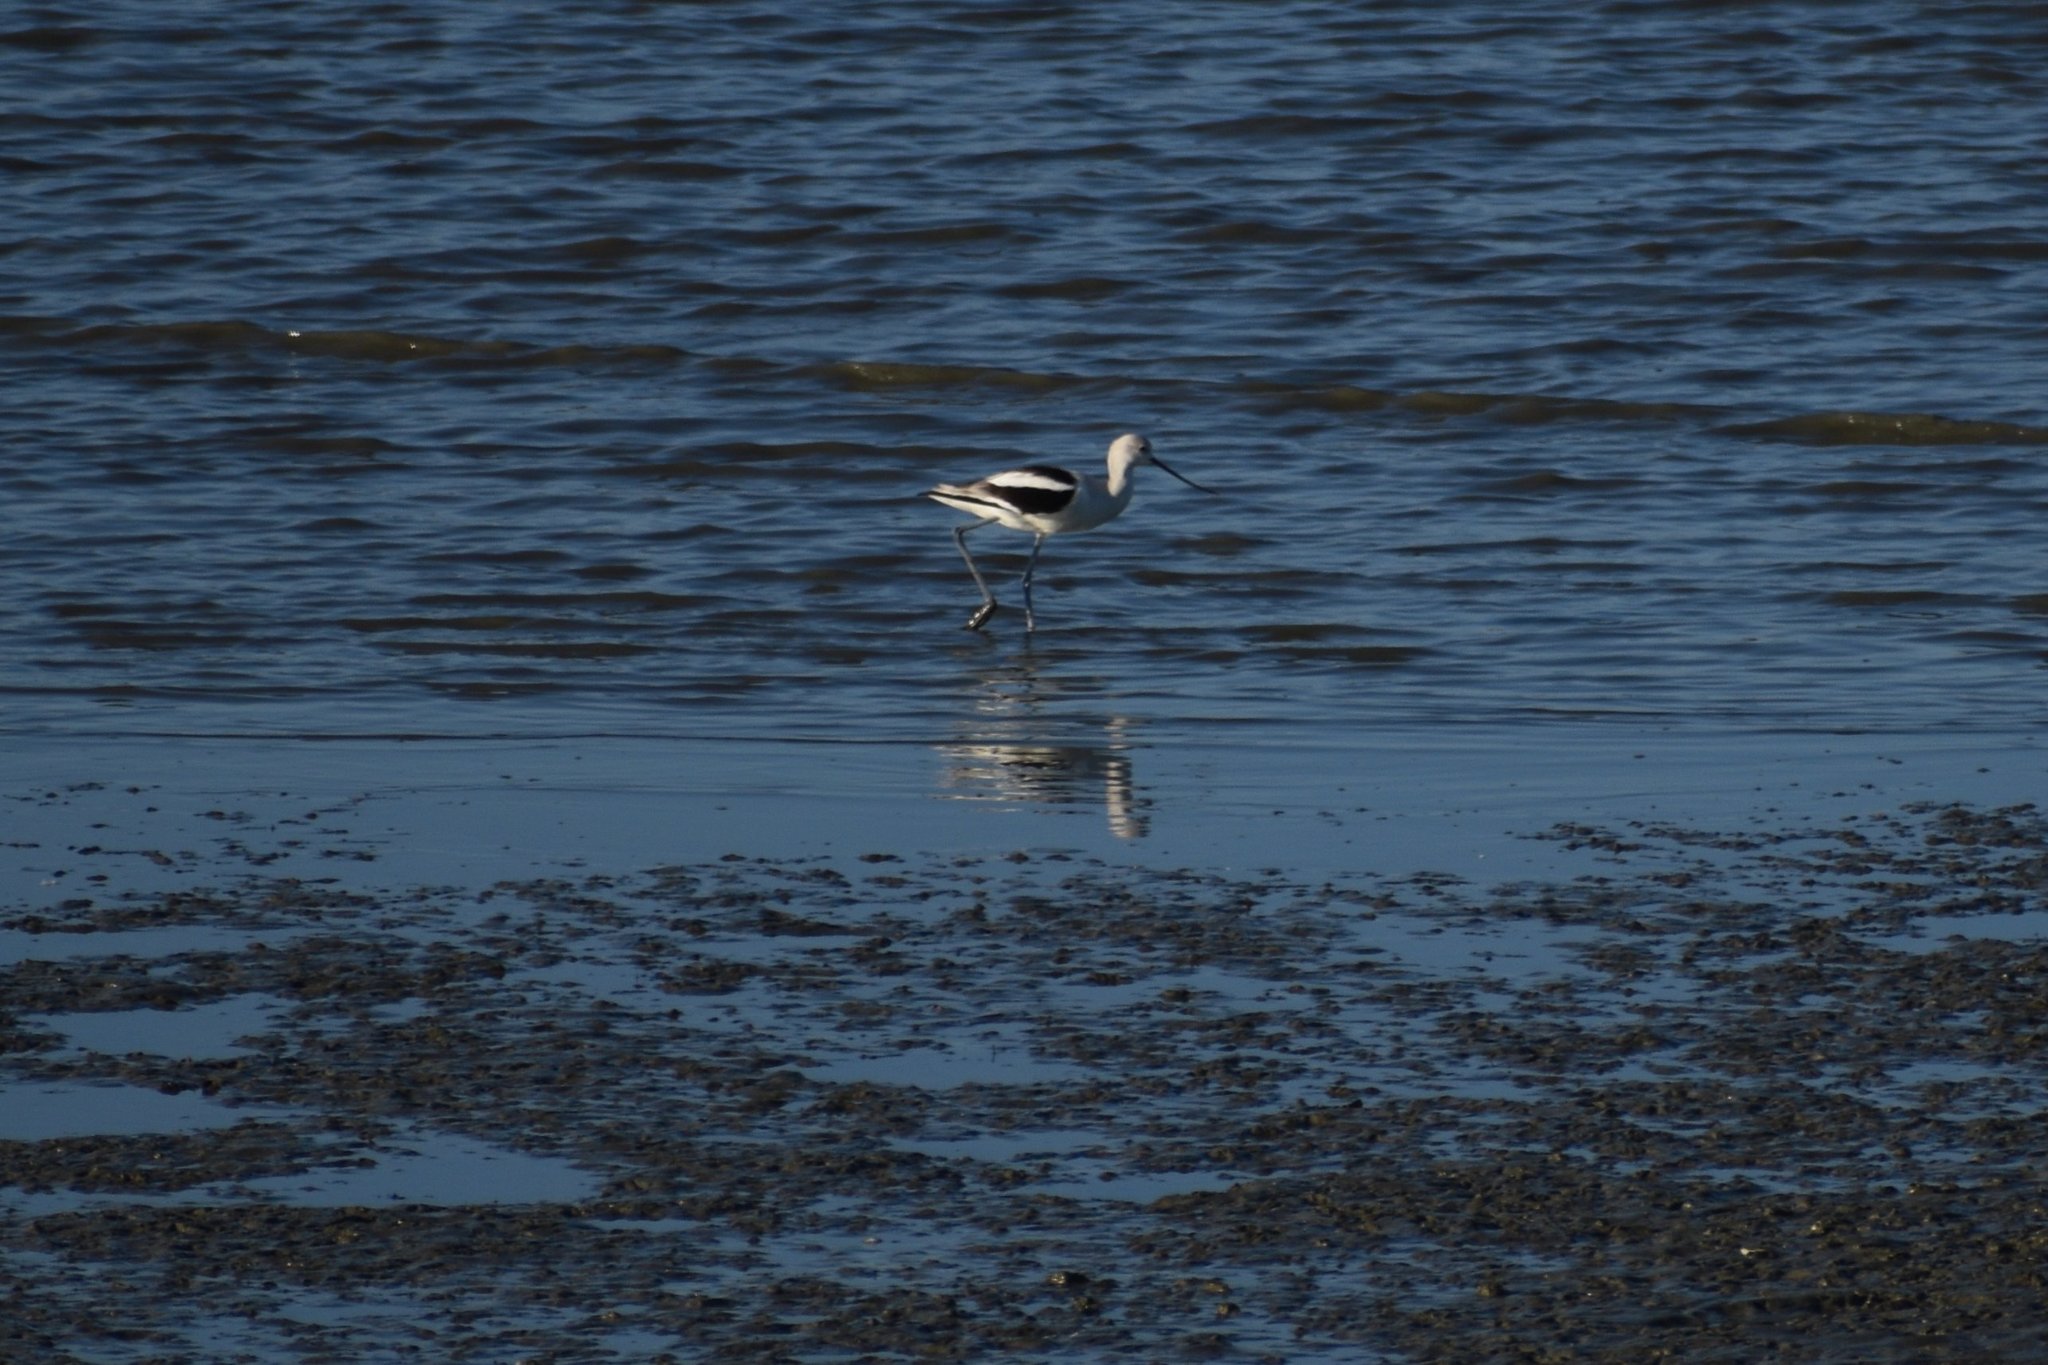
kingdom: Animalia
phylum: Chordata
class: Aves
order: Charadriiformes
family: Recurvirostridae
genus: Recurvirostra
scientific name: Recurvirostra americana
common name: American avocet
